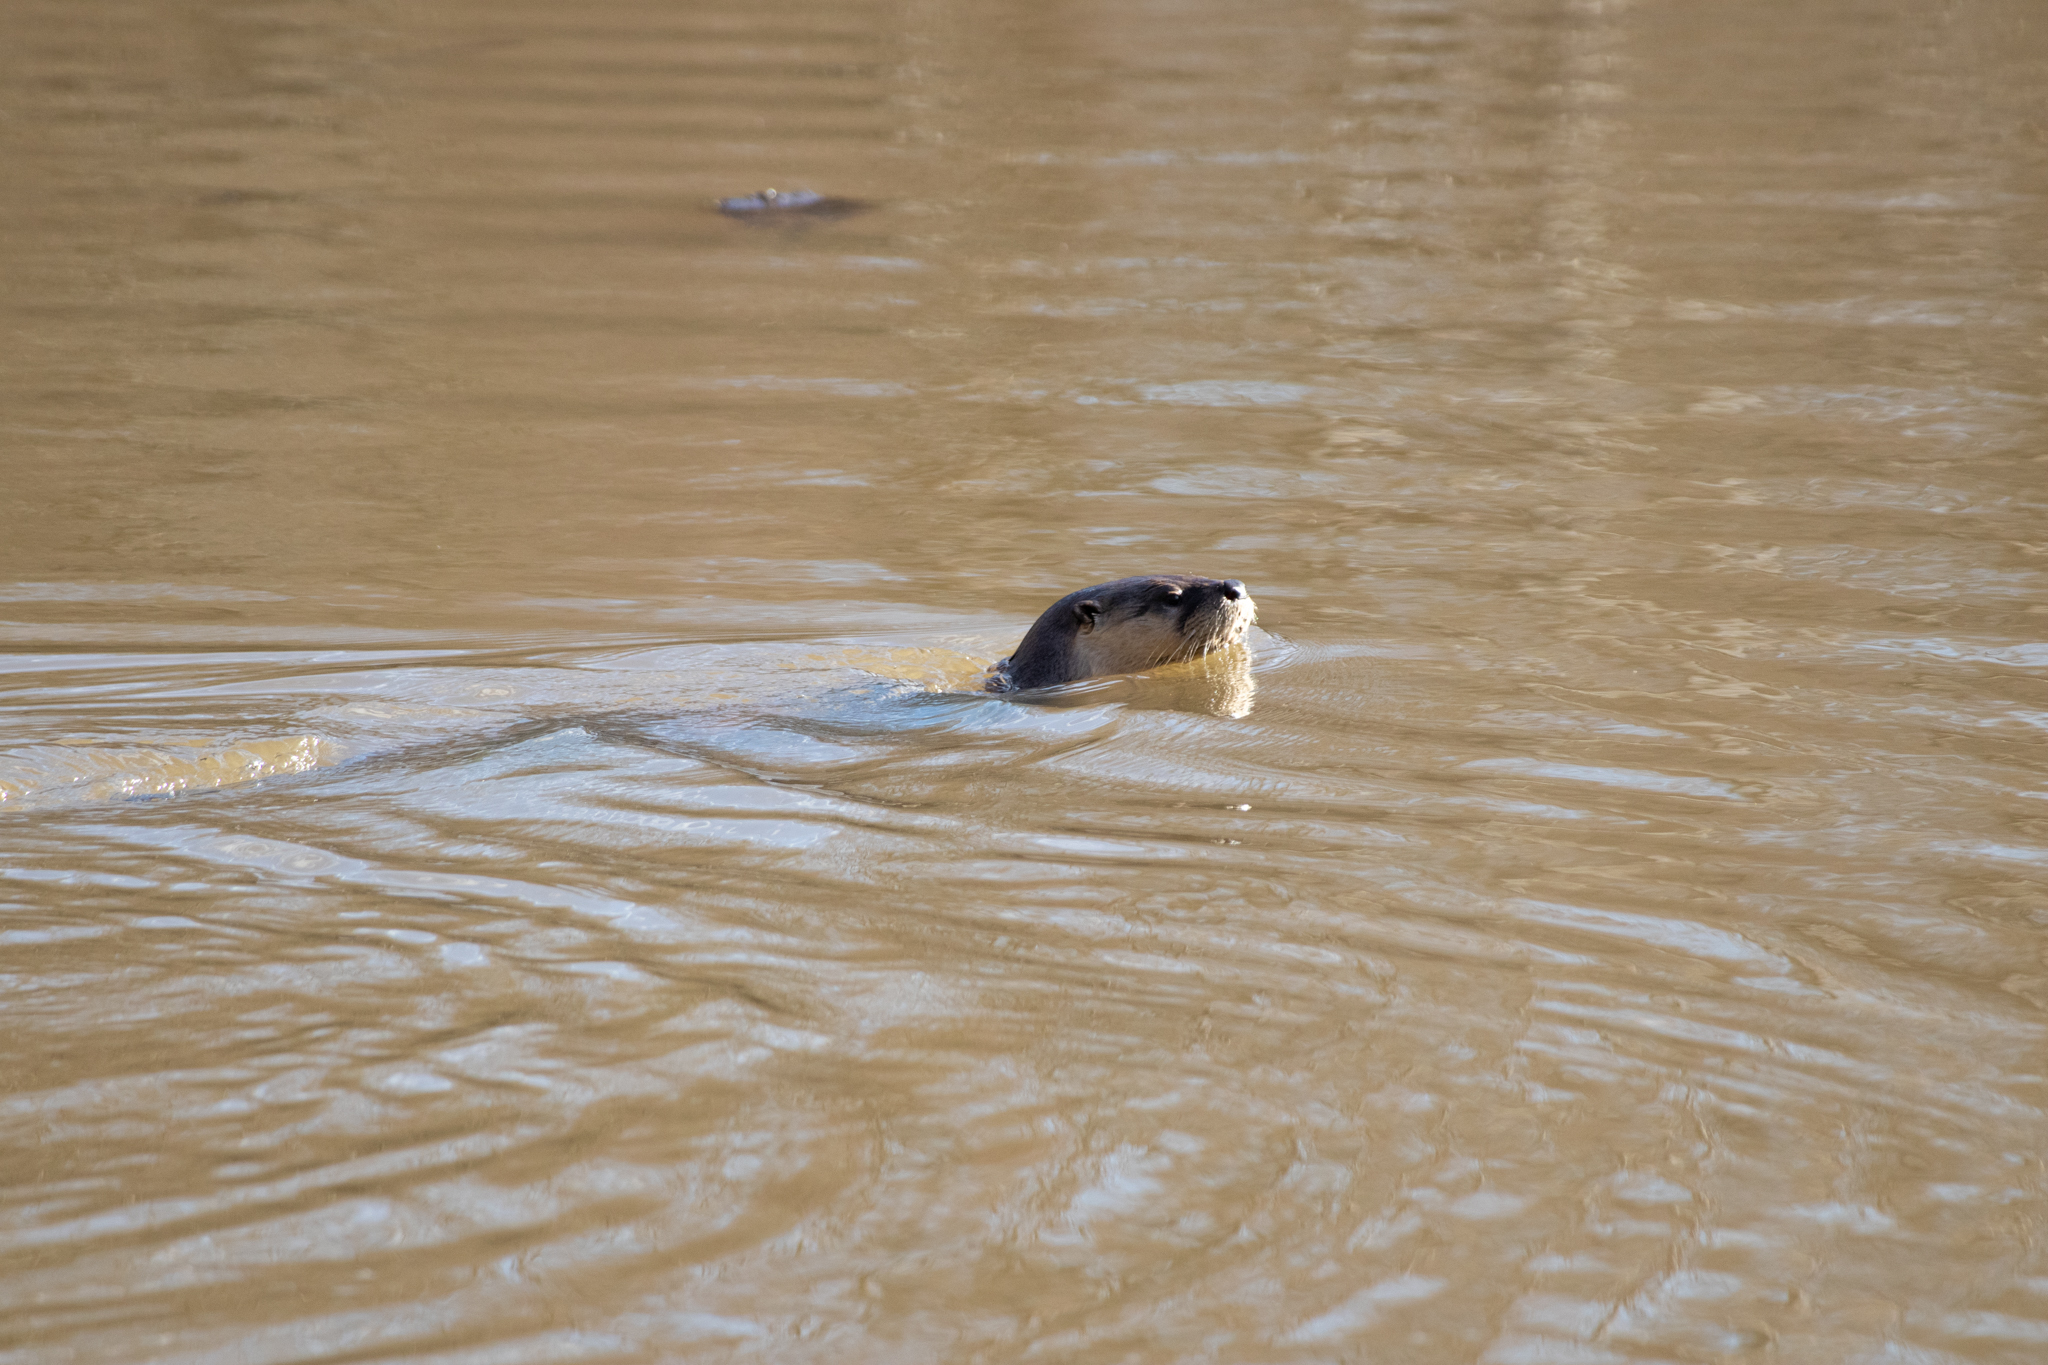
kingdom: Animalia
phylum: Chordata
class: Mammalia
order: Carnivora
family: Mustelidae
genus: Lontra
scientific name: Lontra canadensis
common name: North american river otter
